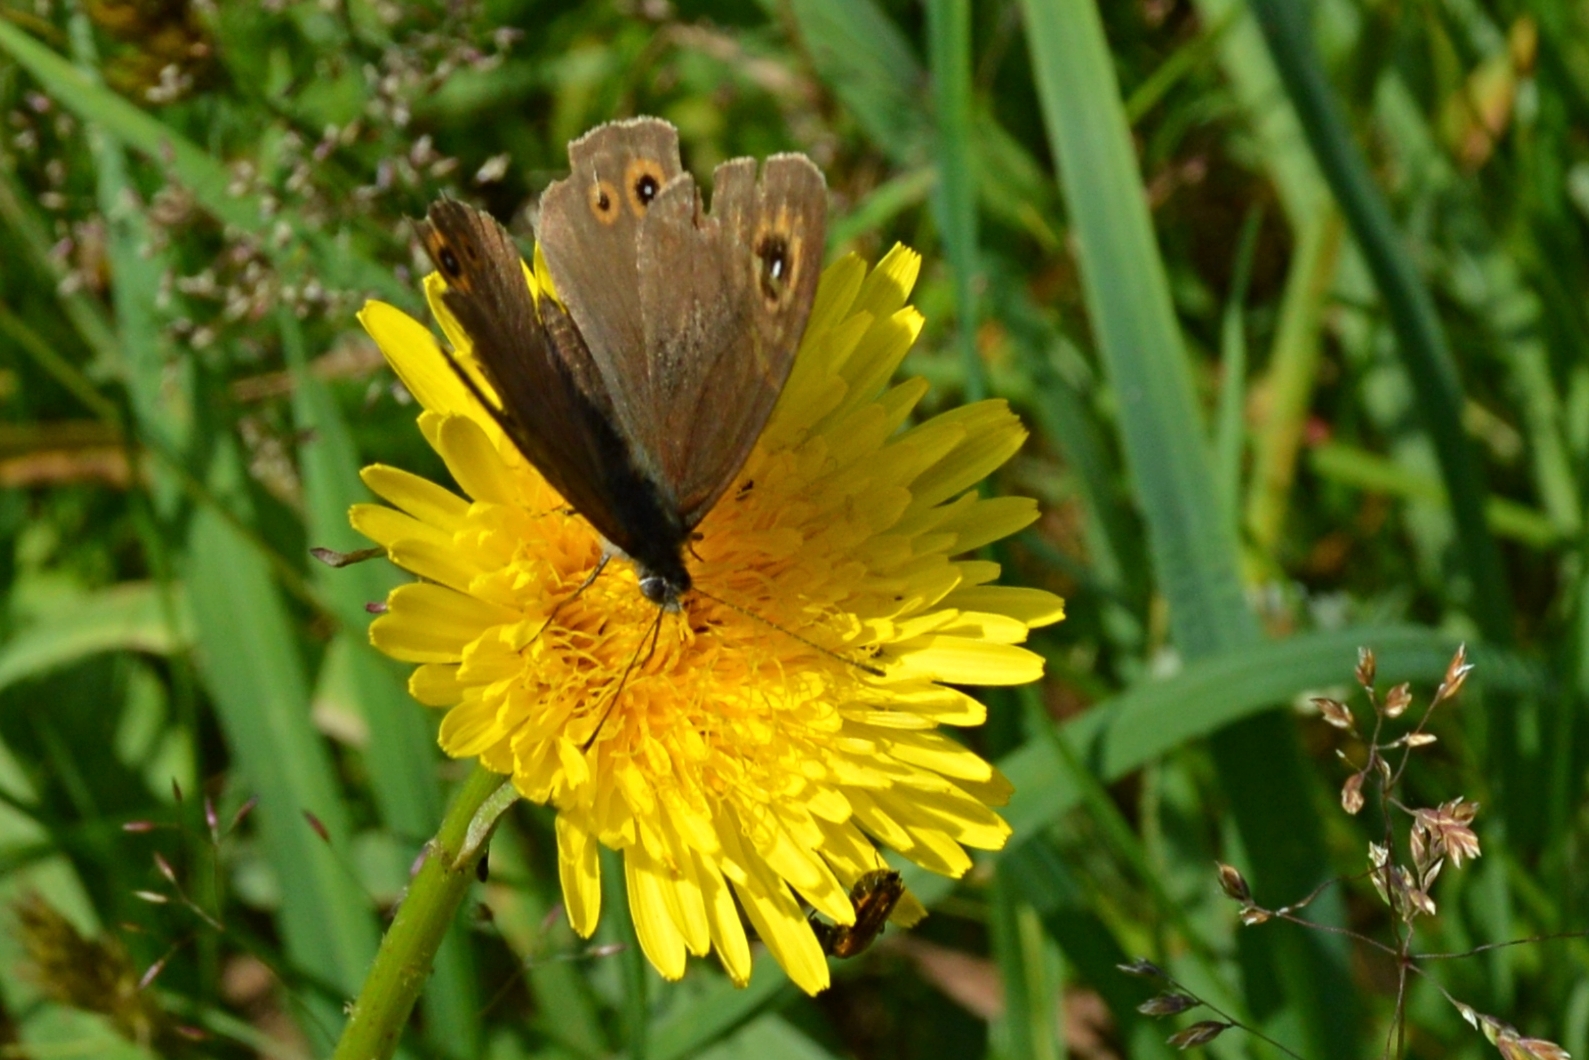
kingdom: Animalia
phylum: Arthropoda
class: Insecta
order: Lepidoptera
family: Nymphalidae
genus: Pararge
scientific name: Pararge Lasiommata maera
